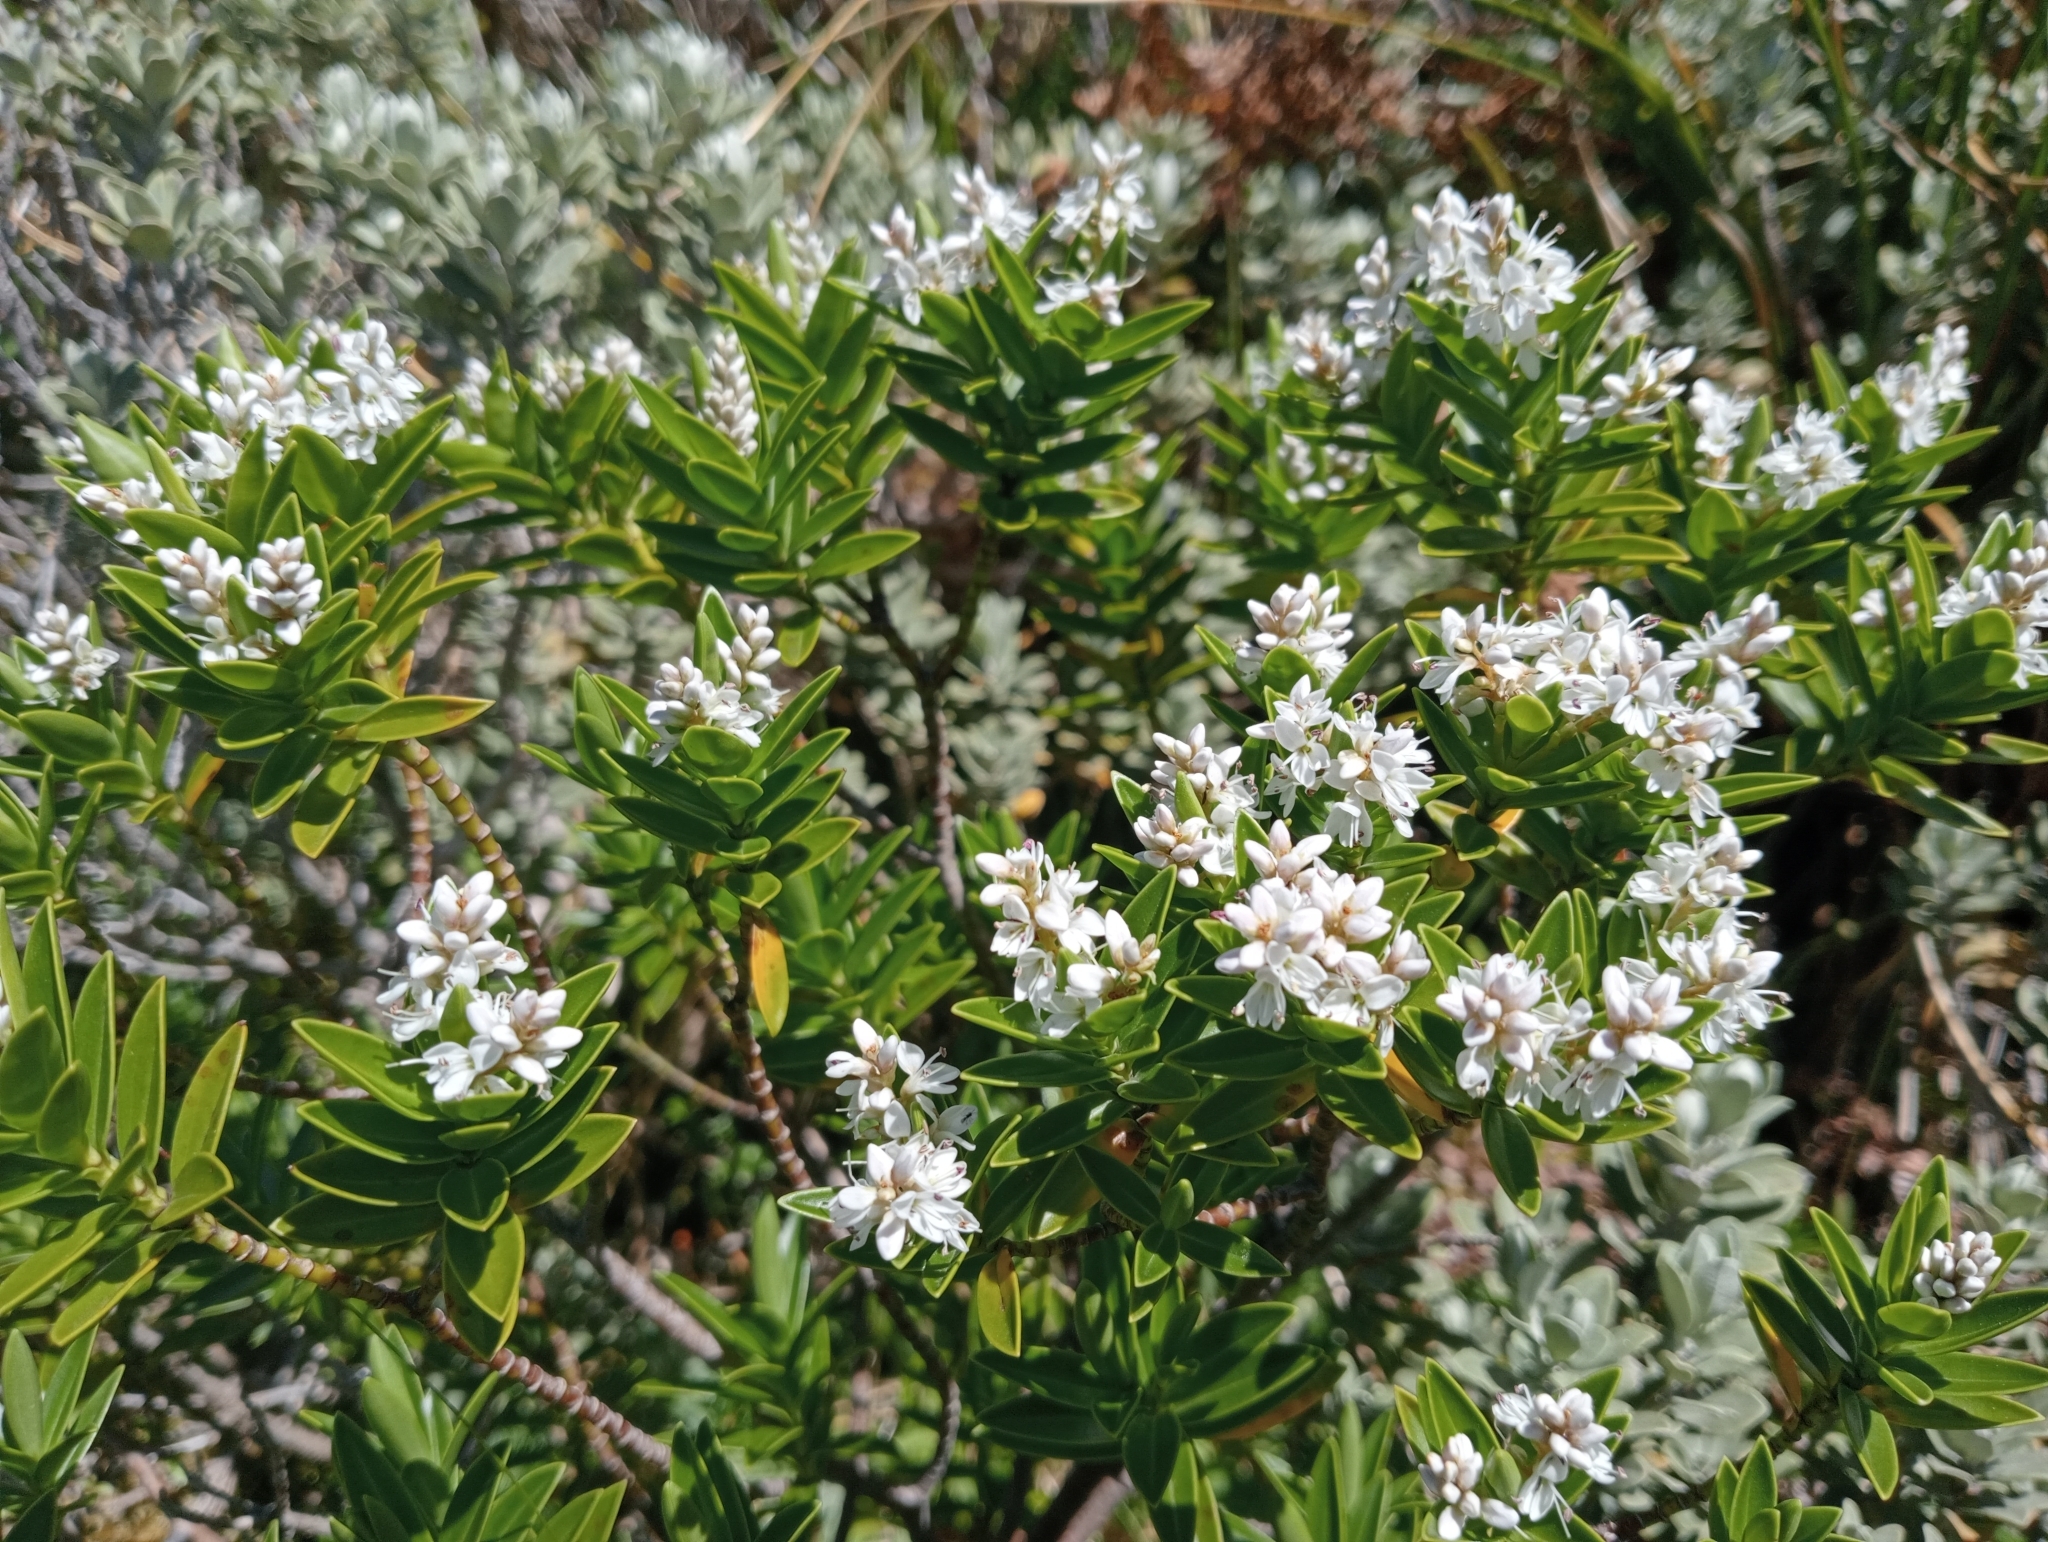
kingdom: Plantae
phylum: Tracheophyta
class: Magnoliopsida
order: Lamiales
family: Plantaginaceae
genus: Veronica
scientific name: Veronica subalpina
